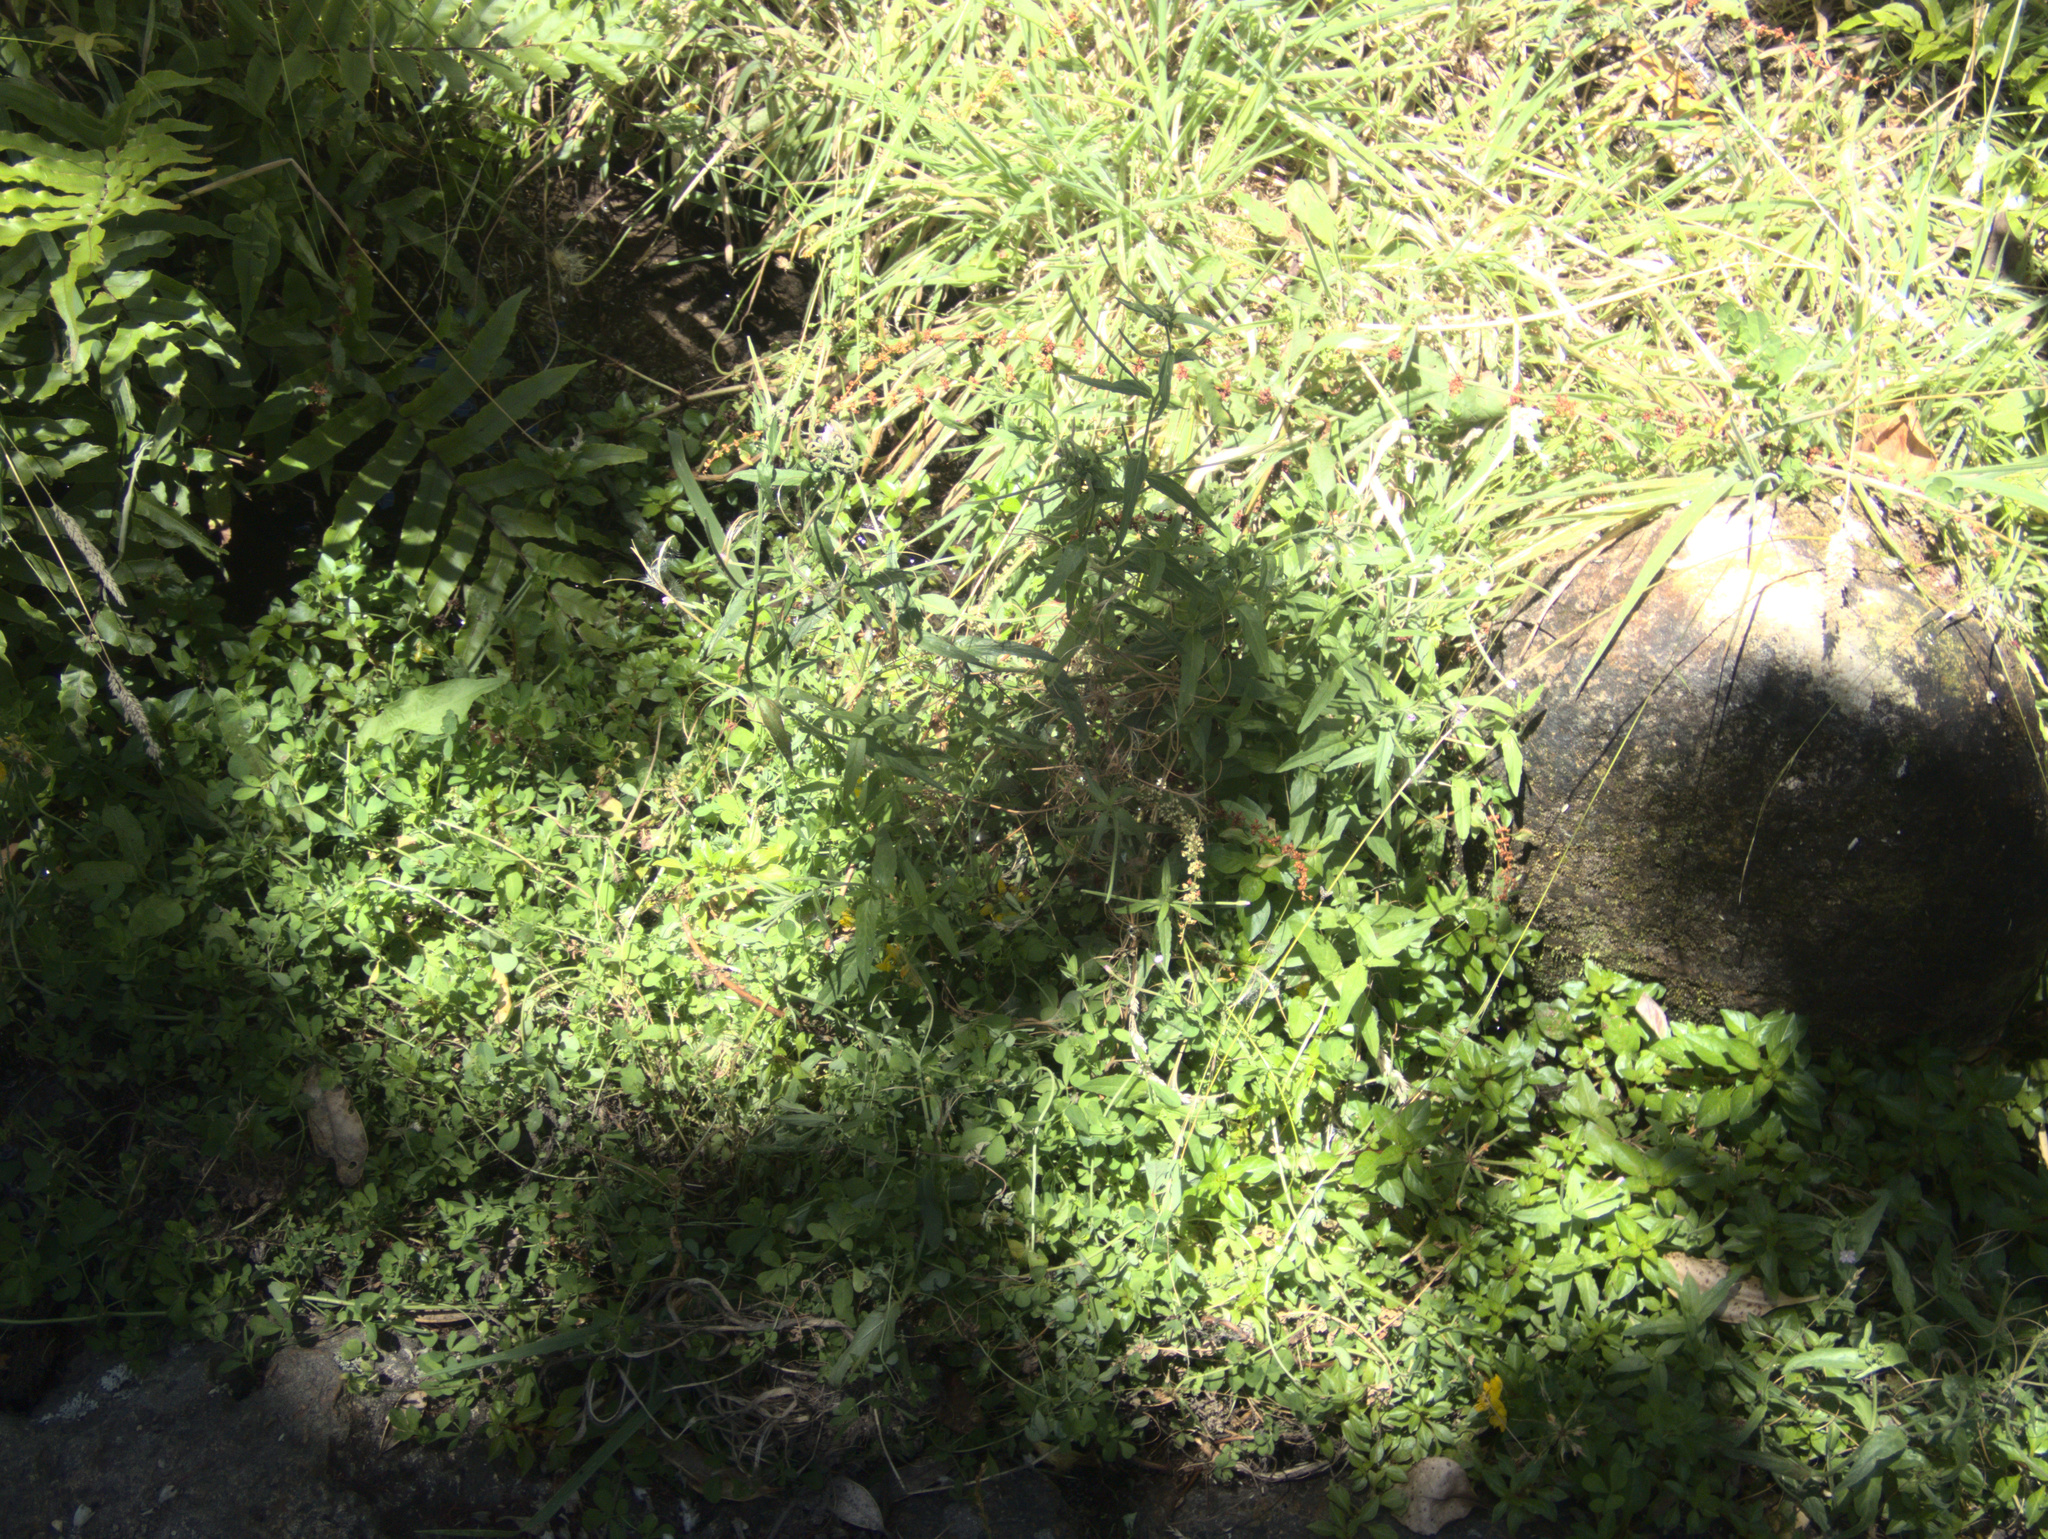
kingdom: Plantae
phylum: Tracheophyta
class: Magnoliopsida
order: Myrtales
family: Onagraceae
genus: Epilobium
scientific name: Epilobium ciliatum
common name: American willowherb
